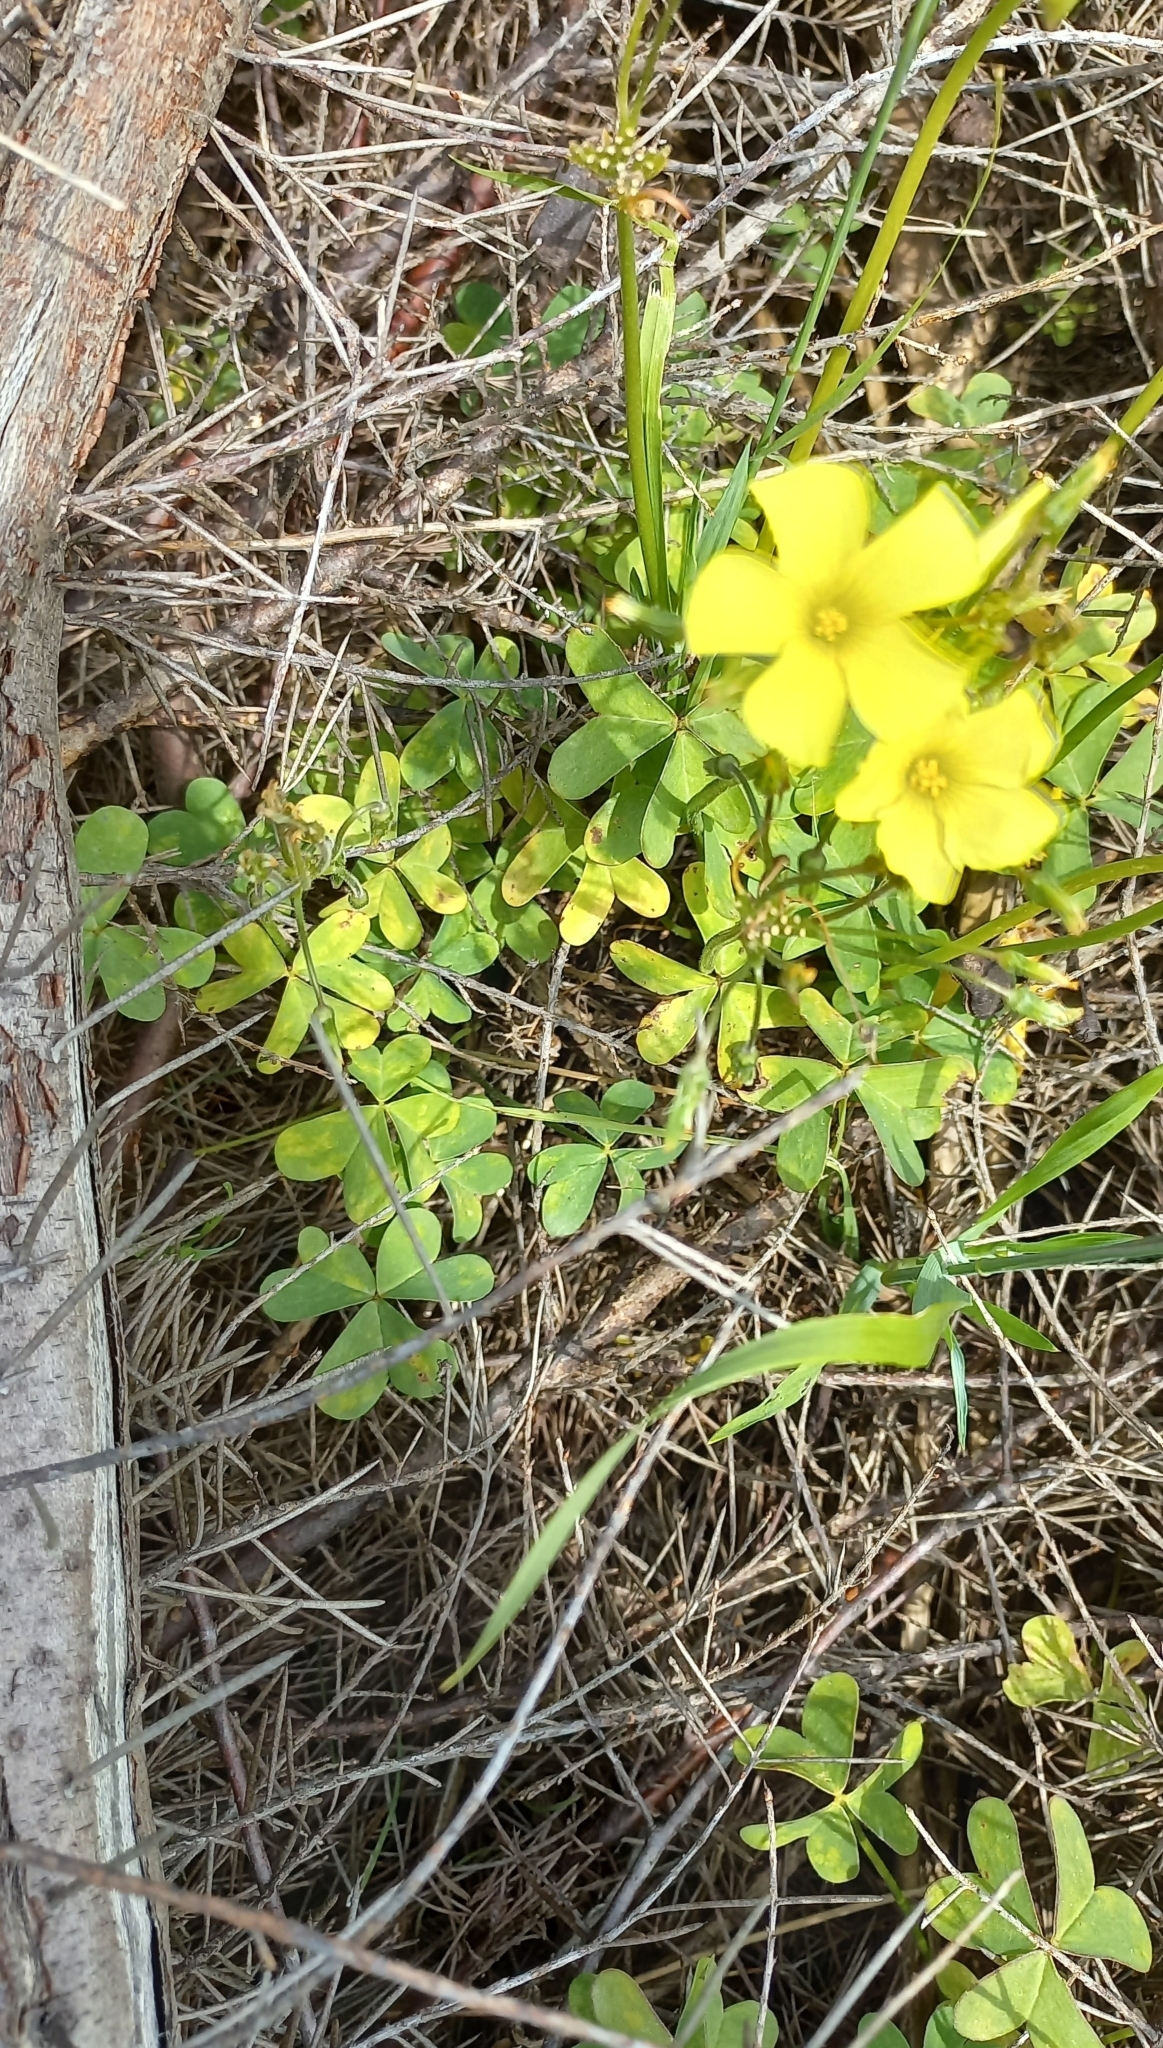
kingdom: Plantae
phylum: Tracheophyta
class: Magnoliopsida
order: Oxalidales
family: Oxalidaceae
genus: Oxalis
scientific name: Oxalis pes-caprae
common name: Bermuda-buttercup
